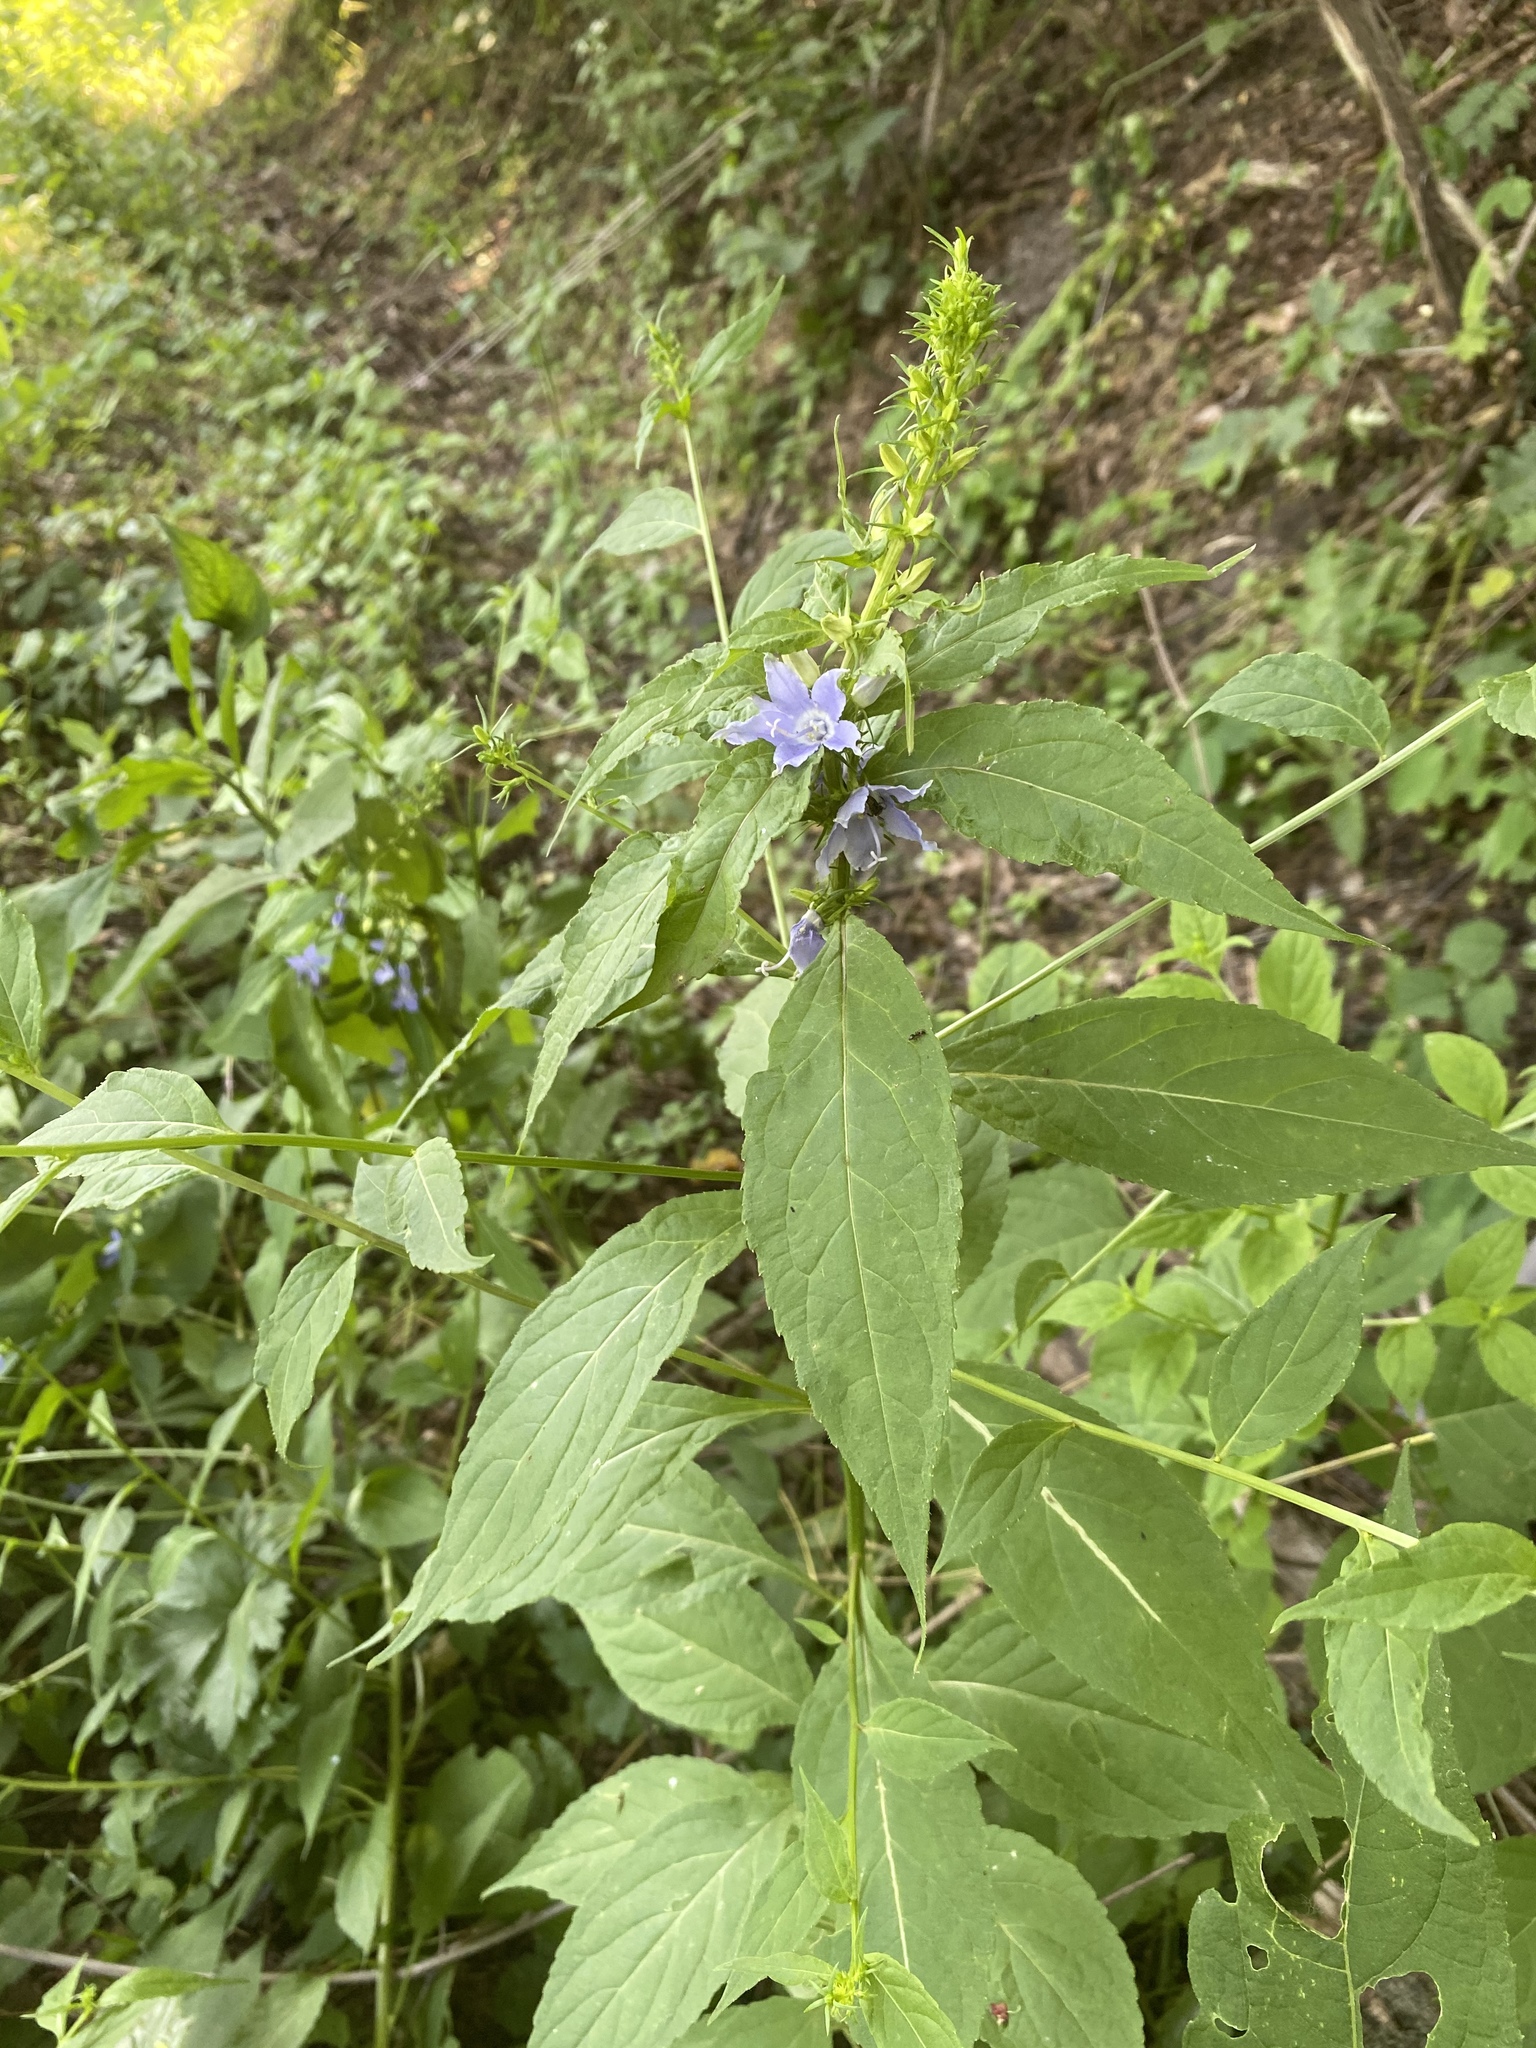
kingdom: Plantae
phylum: Tracheophyta
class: Magnoliopsida
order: Asterales
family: Campanulaceae
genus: Campanulastrum
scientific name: Campanulastrum americanum
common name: American bellflower
